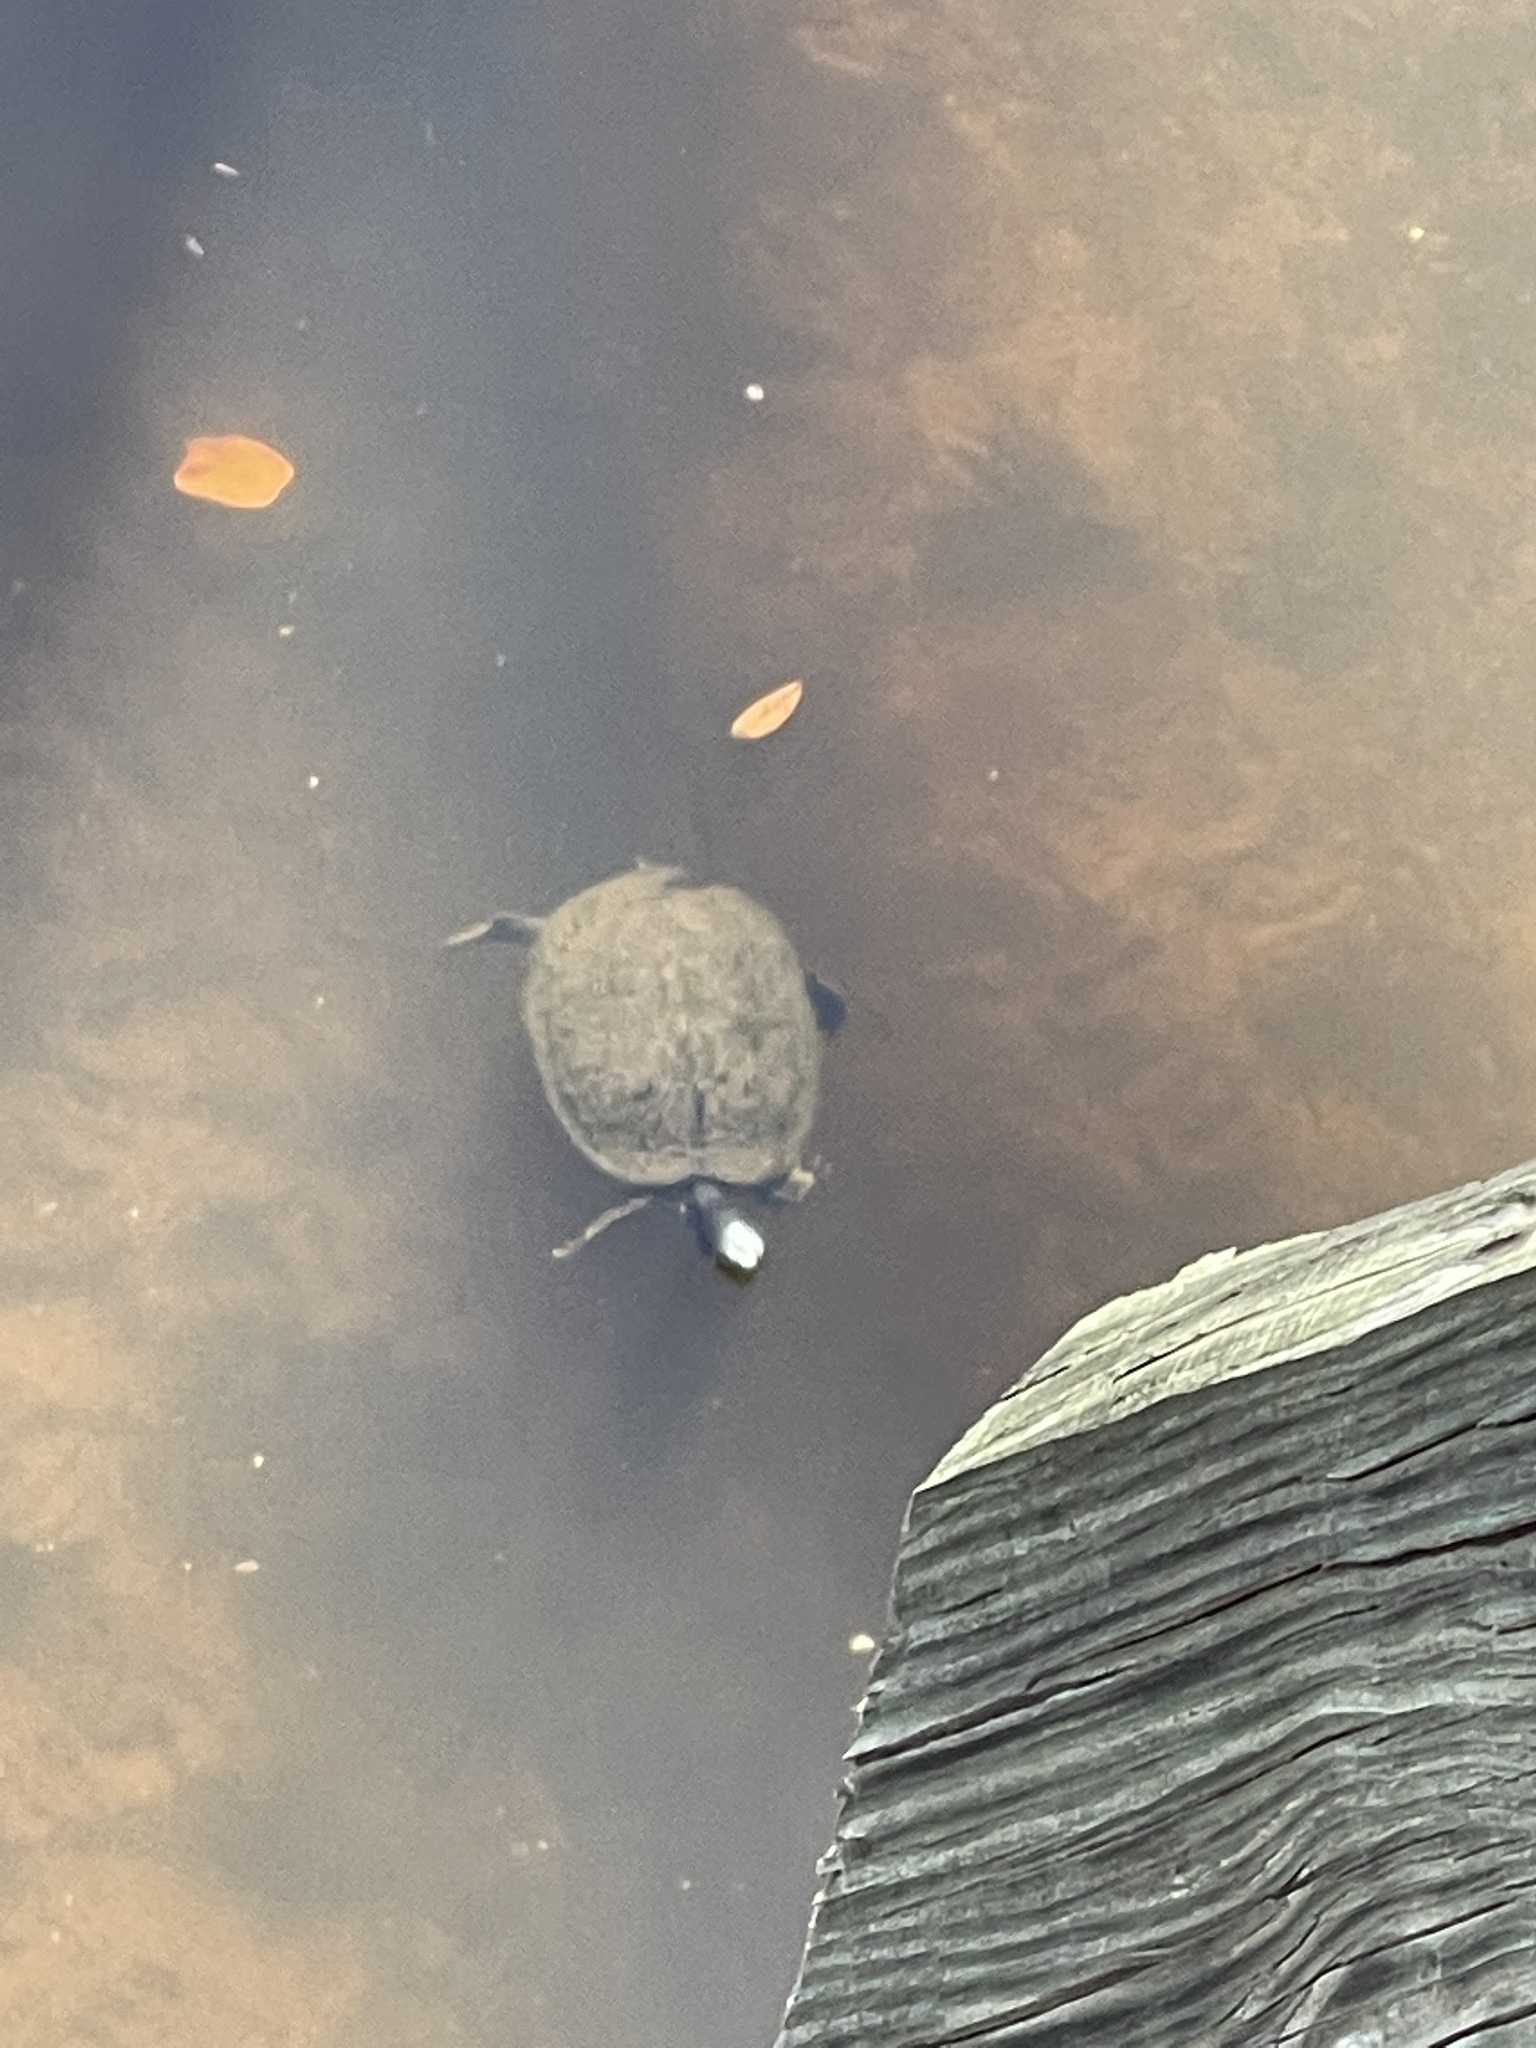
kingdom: Animalia
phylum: Chordata
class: Testudines
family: Emydidae
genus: Trachemys
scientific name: Trachemys scripta
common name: Slider
